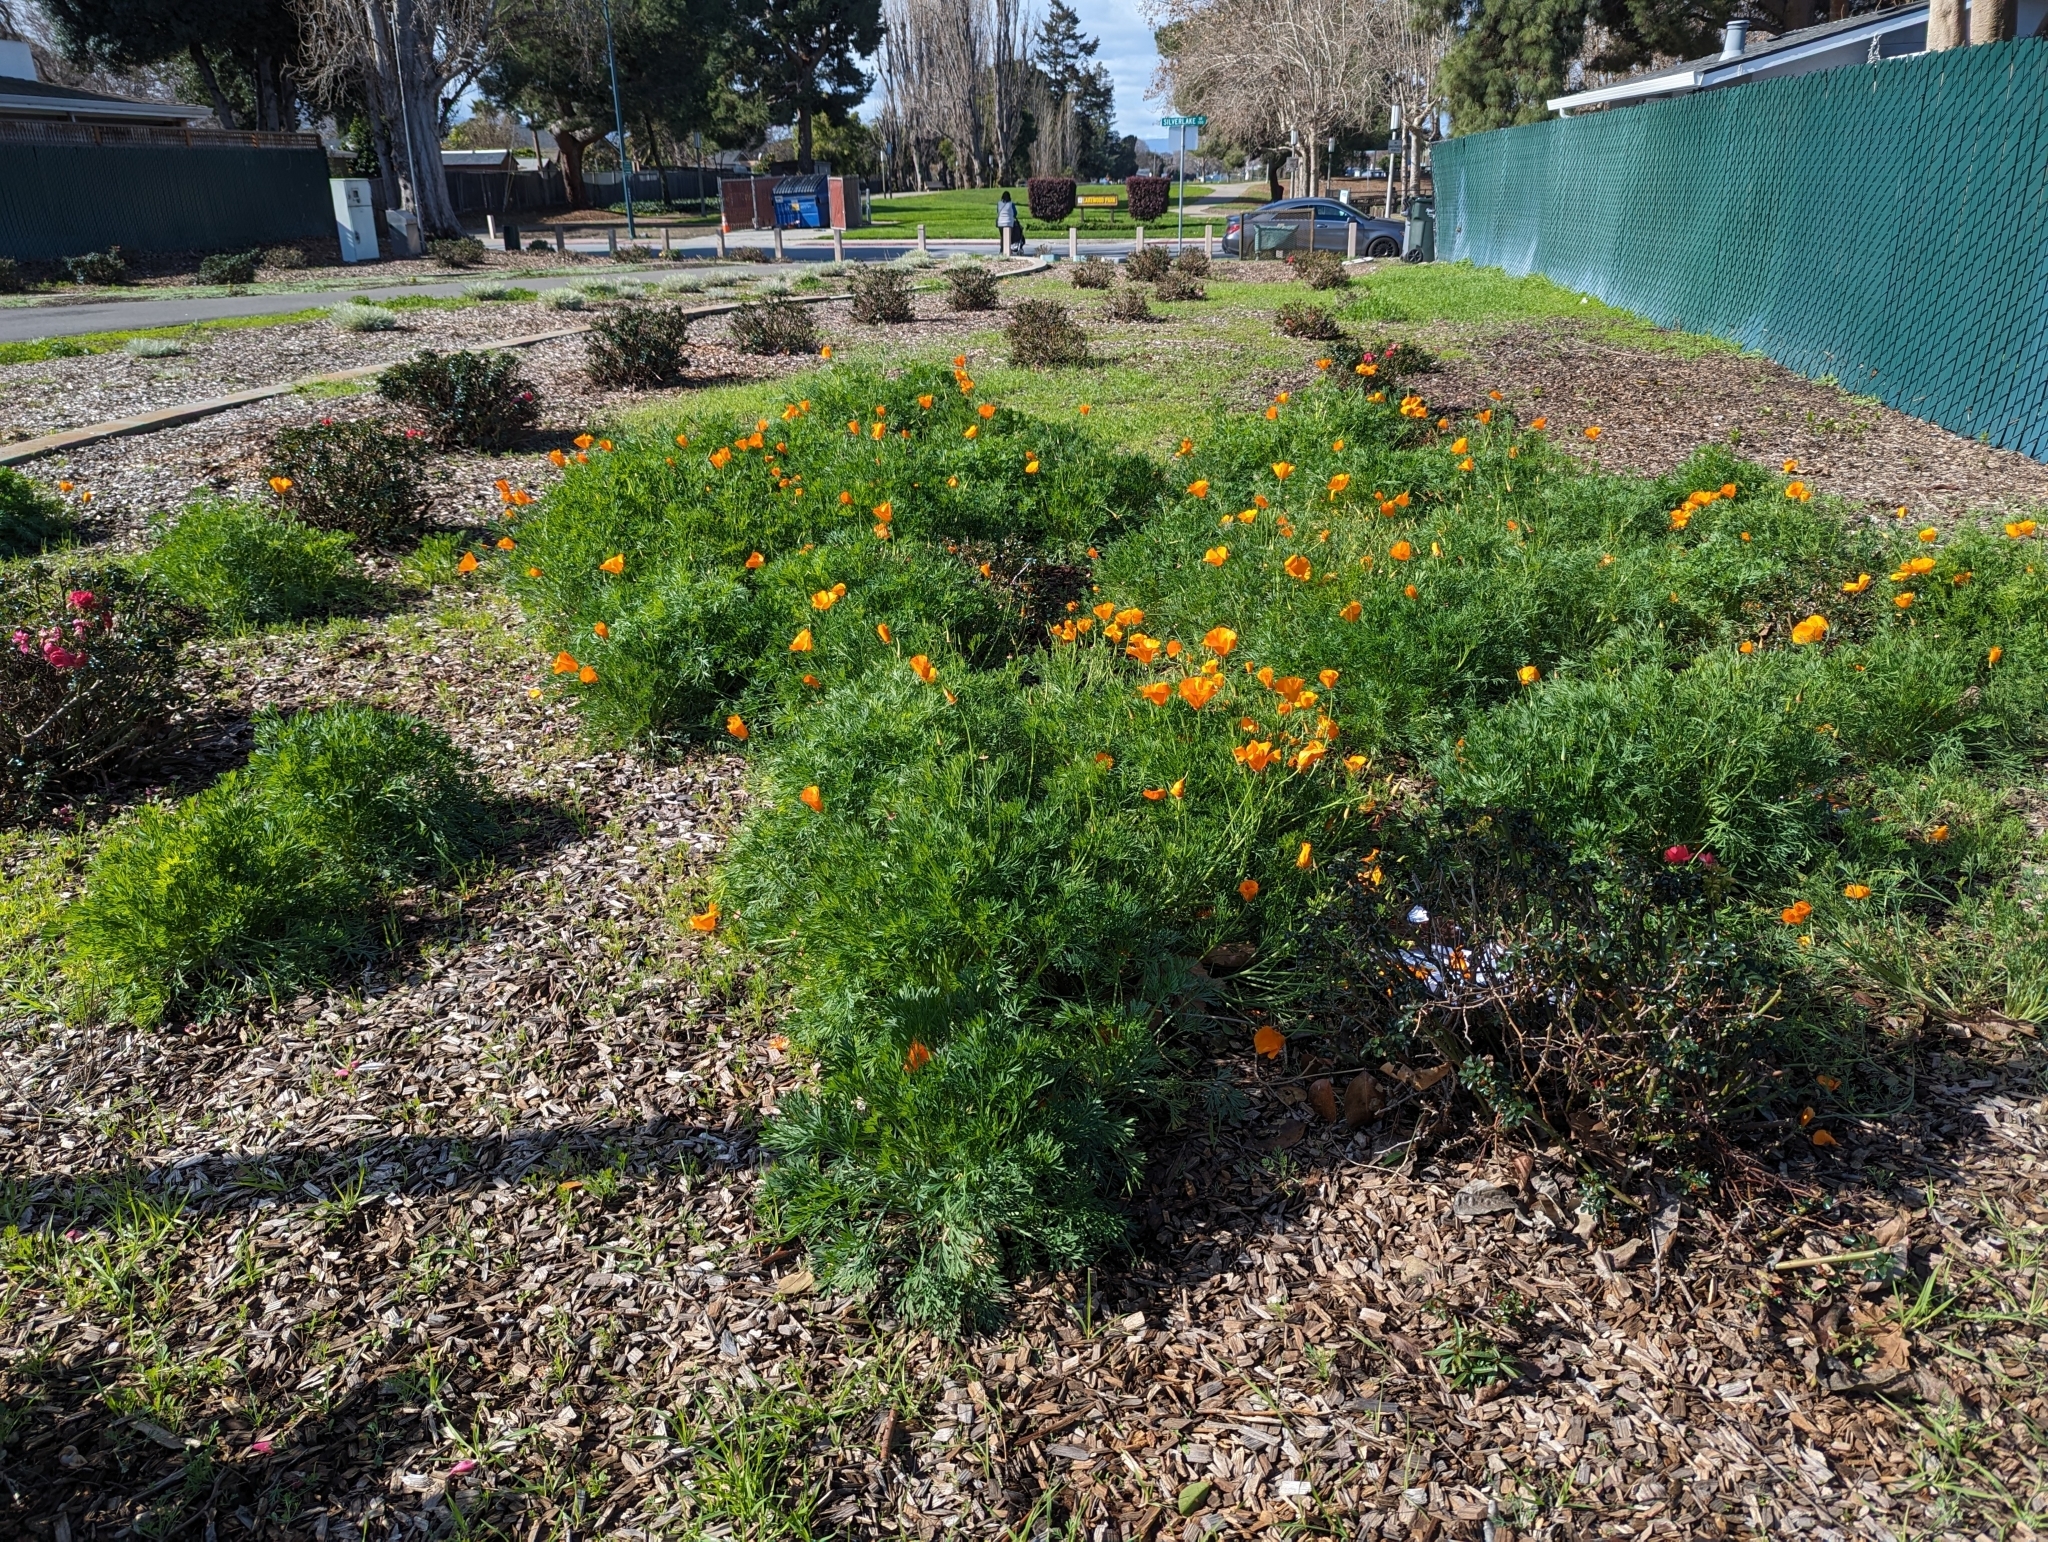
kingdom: Plantae
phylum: Tracheophyta
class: Magnoliopsida
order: Ranunculales
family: Papaveraceae
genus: Eschscholzia
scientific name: Eschscholzia californica
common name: California poppy
